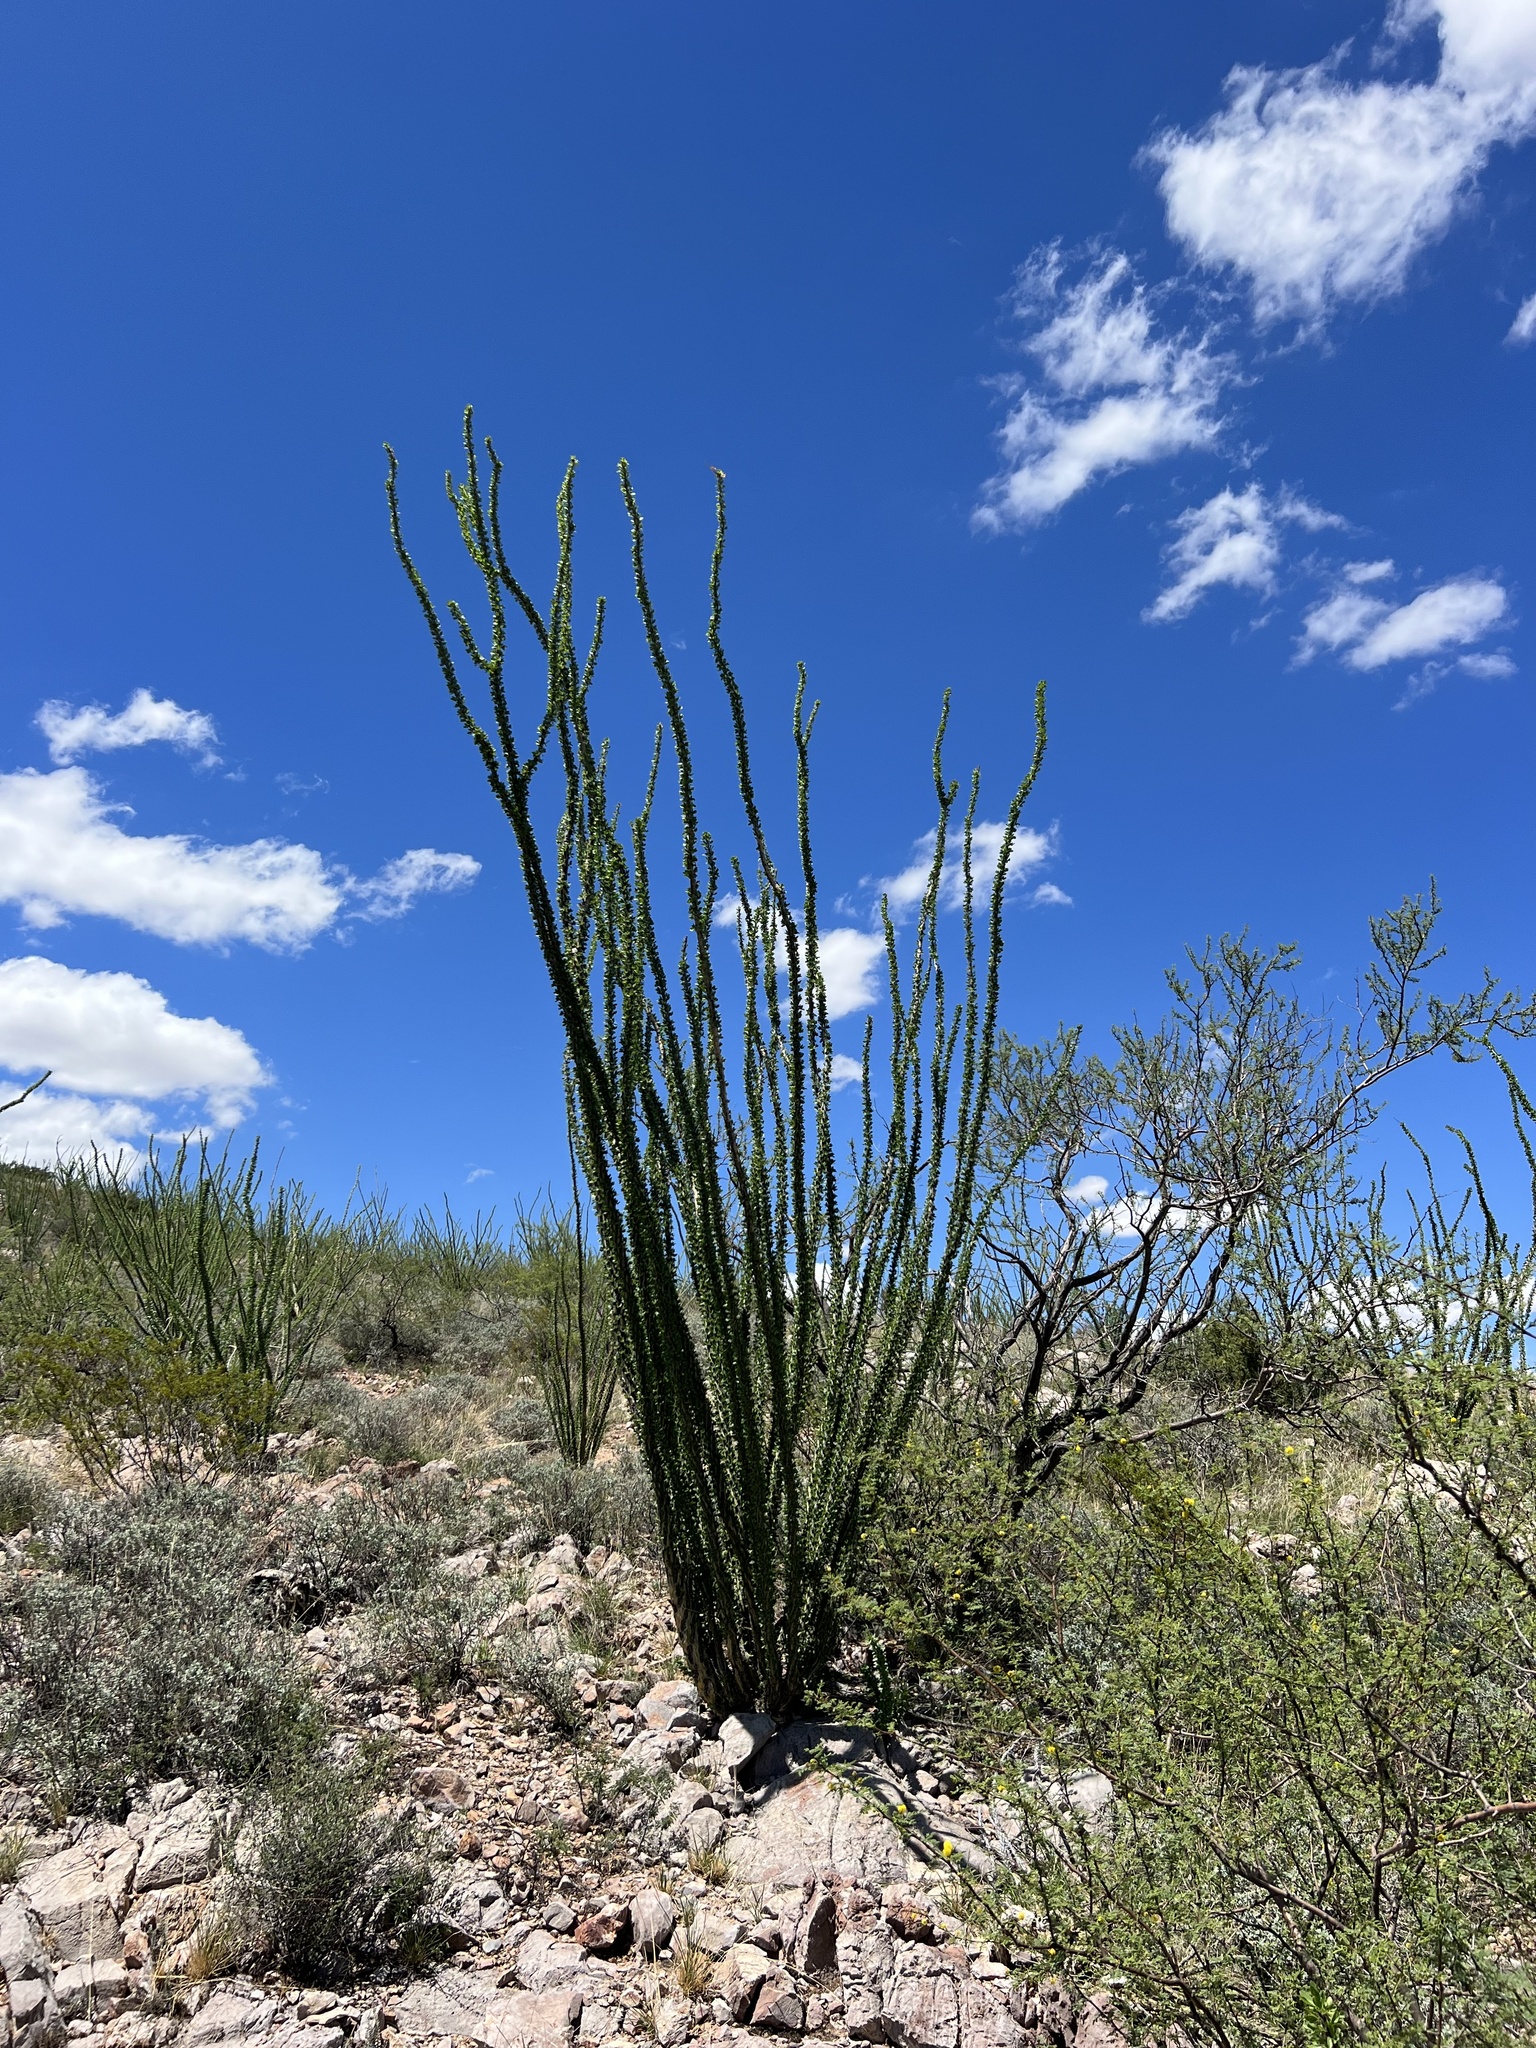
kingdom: Plantae
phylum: Tracheophyta
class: Magnoliopsida
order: Ericales
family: Fouquieriaceae
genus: Fouquieria
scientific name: Fouquieria splendens
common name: Vine-cactus
